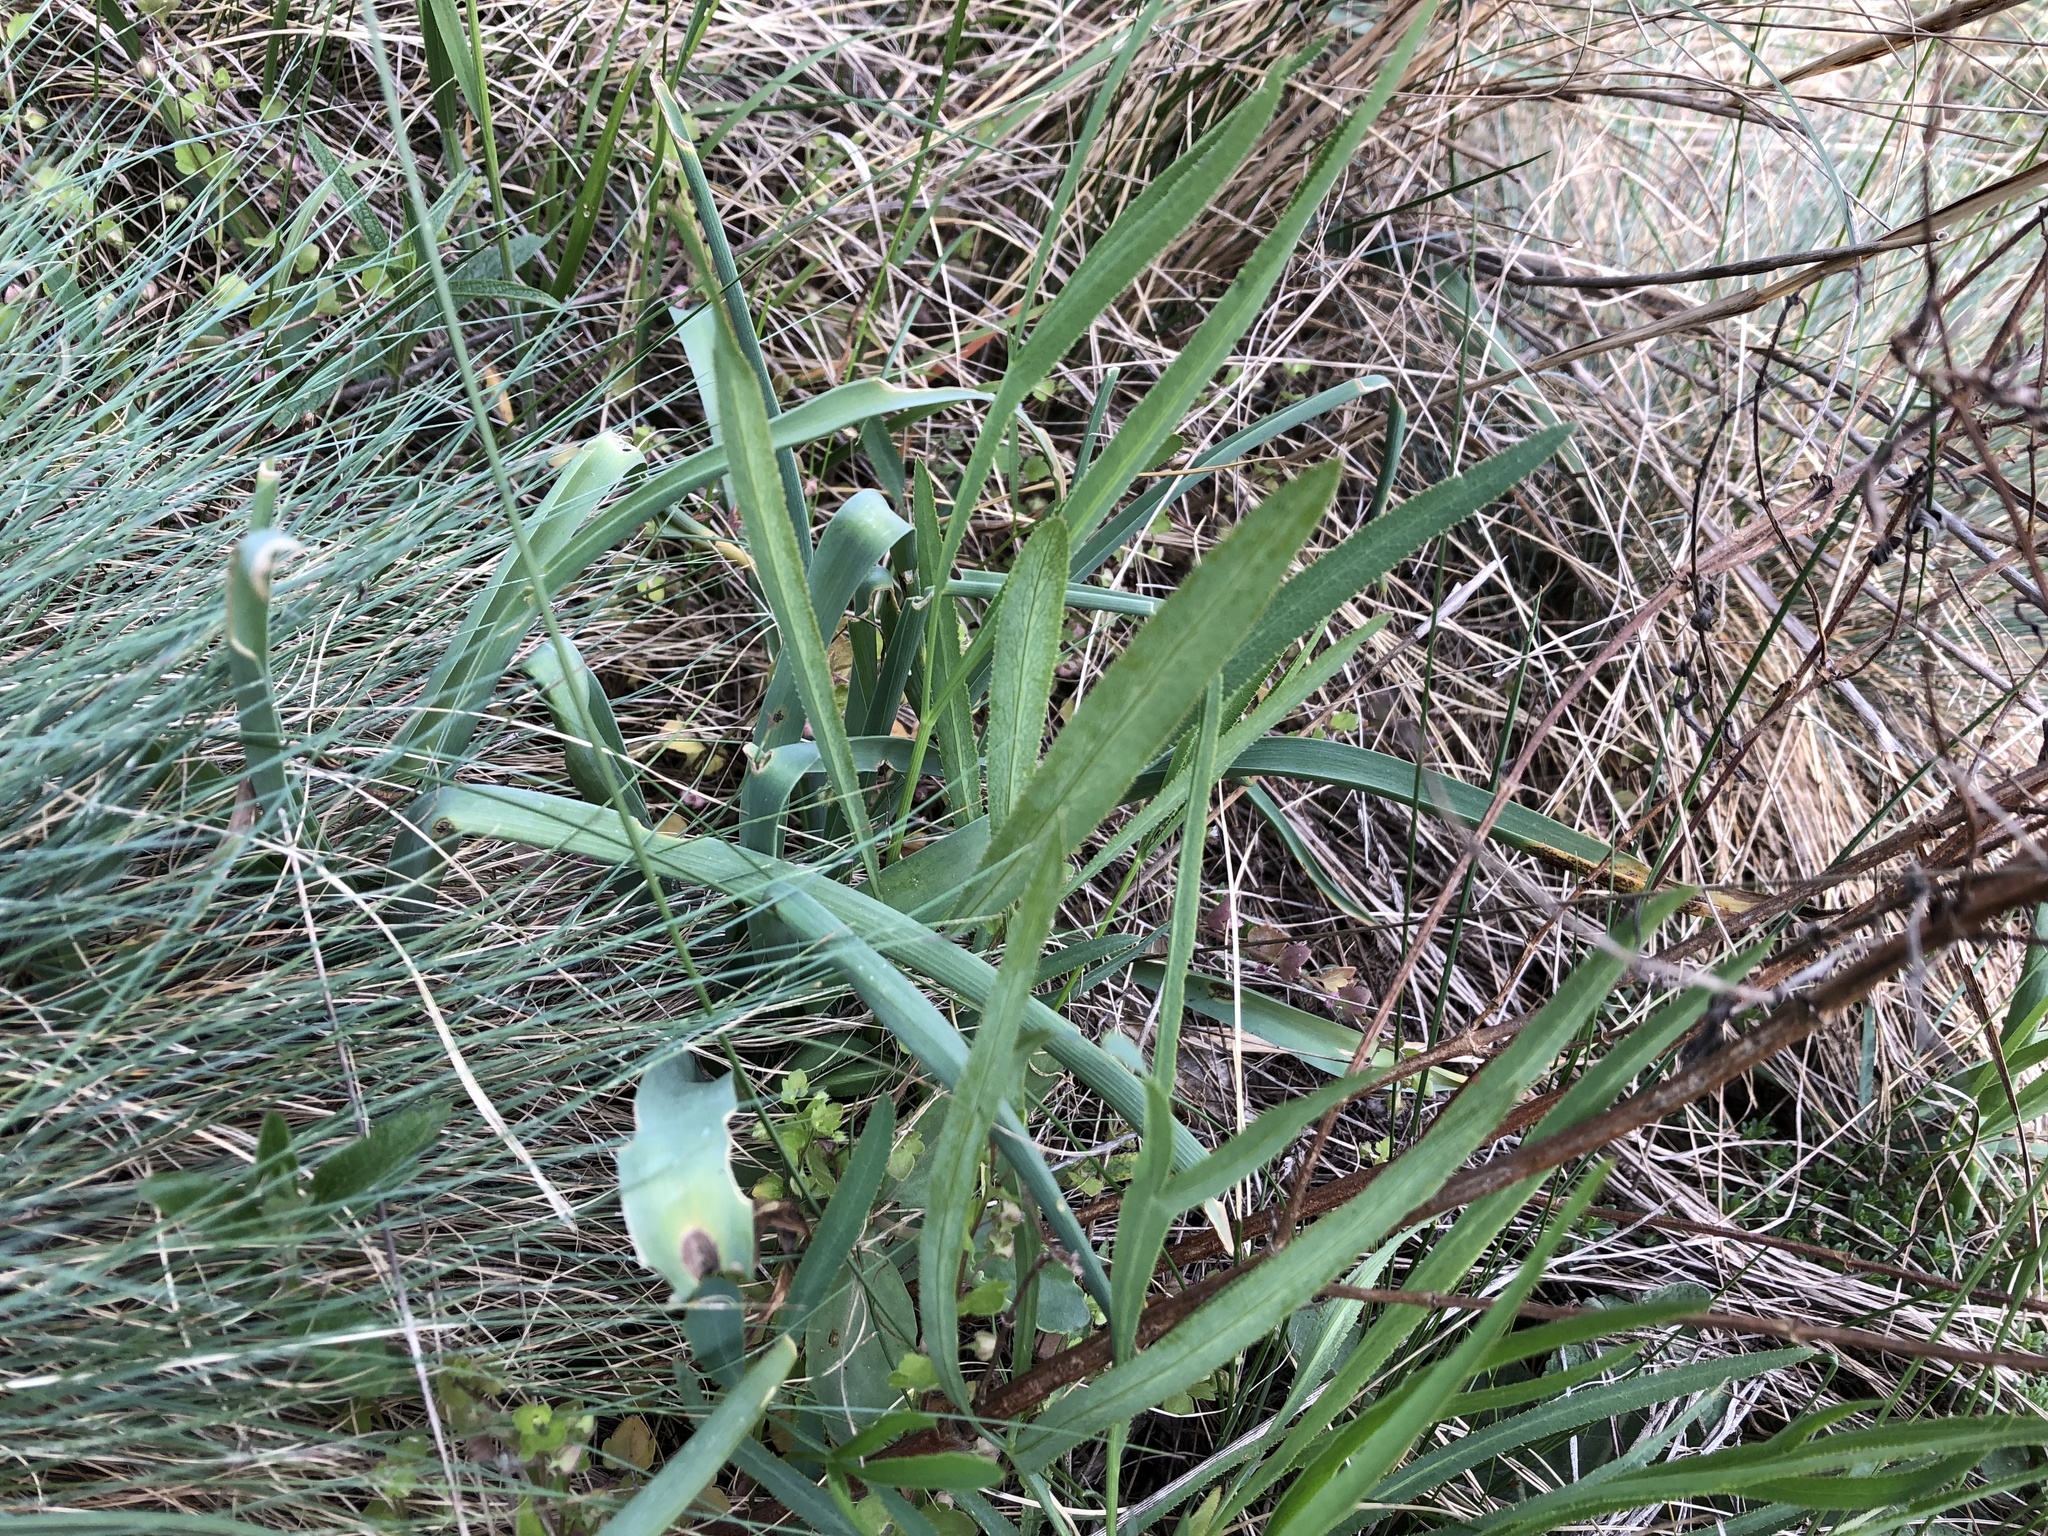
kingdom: Plantae
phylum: Tracheophyta
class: Liliopsida
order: Asparagales
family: Amaryllidaceae
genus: Allium
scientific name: Allium lusitanicum
